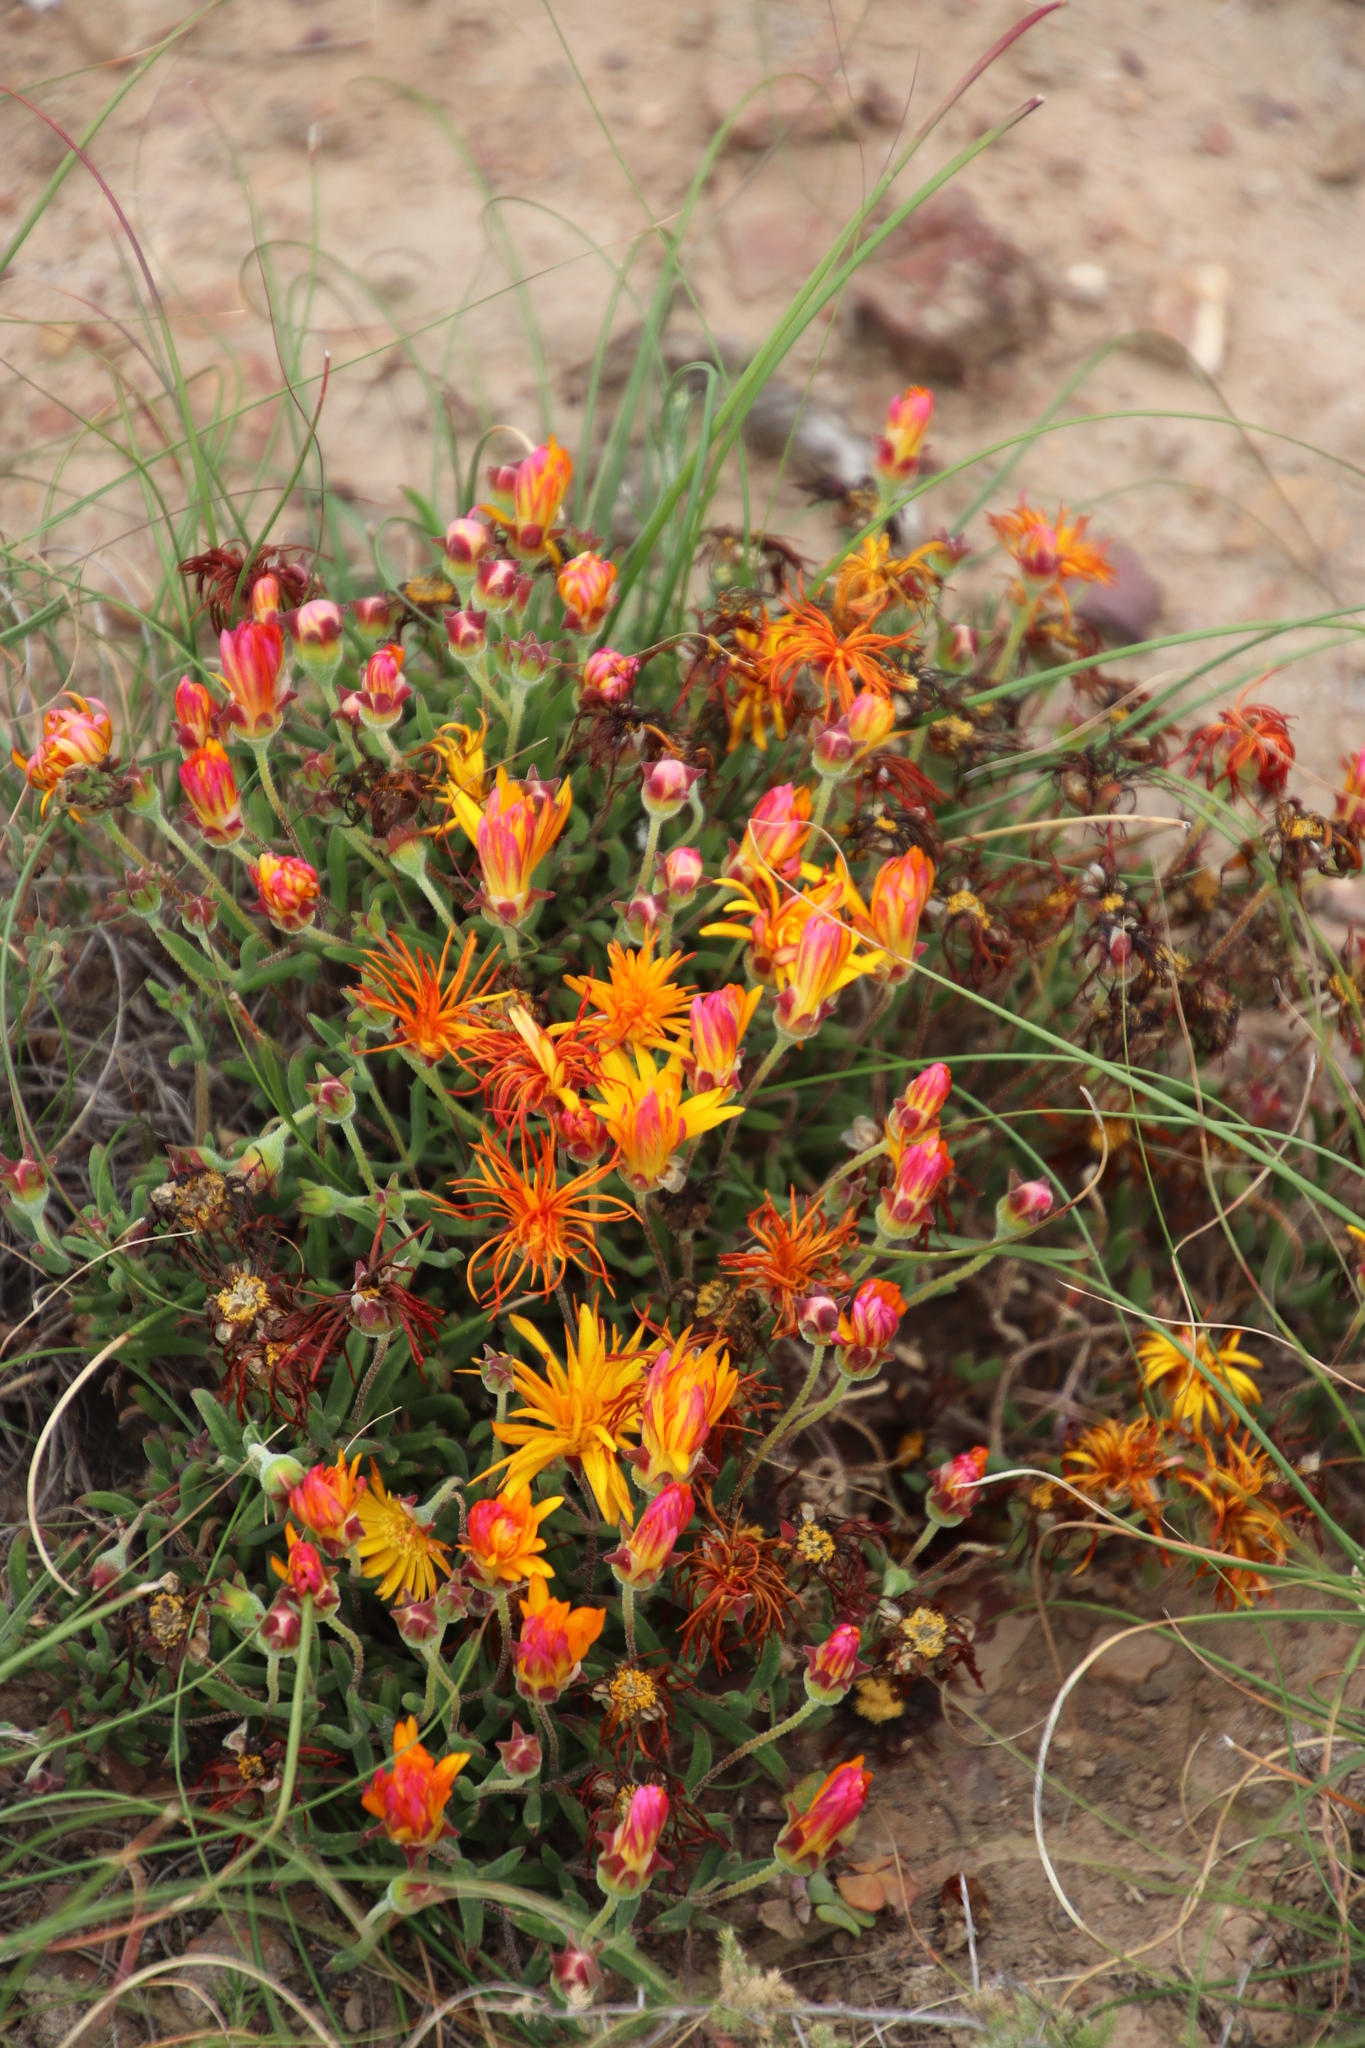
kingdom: Plantae
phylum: Tracheophyta
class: Magnoliopsida
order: Caryophyllales
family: Aizoaceae
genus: Drosanthemum
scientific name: Drosanthemum flavum
